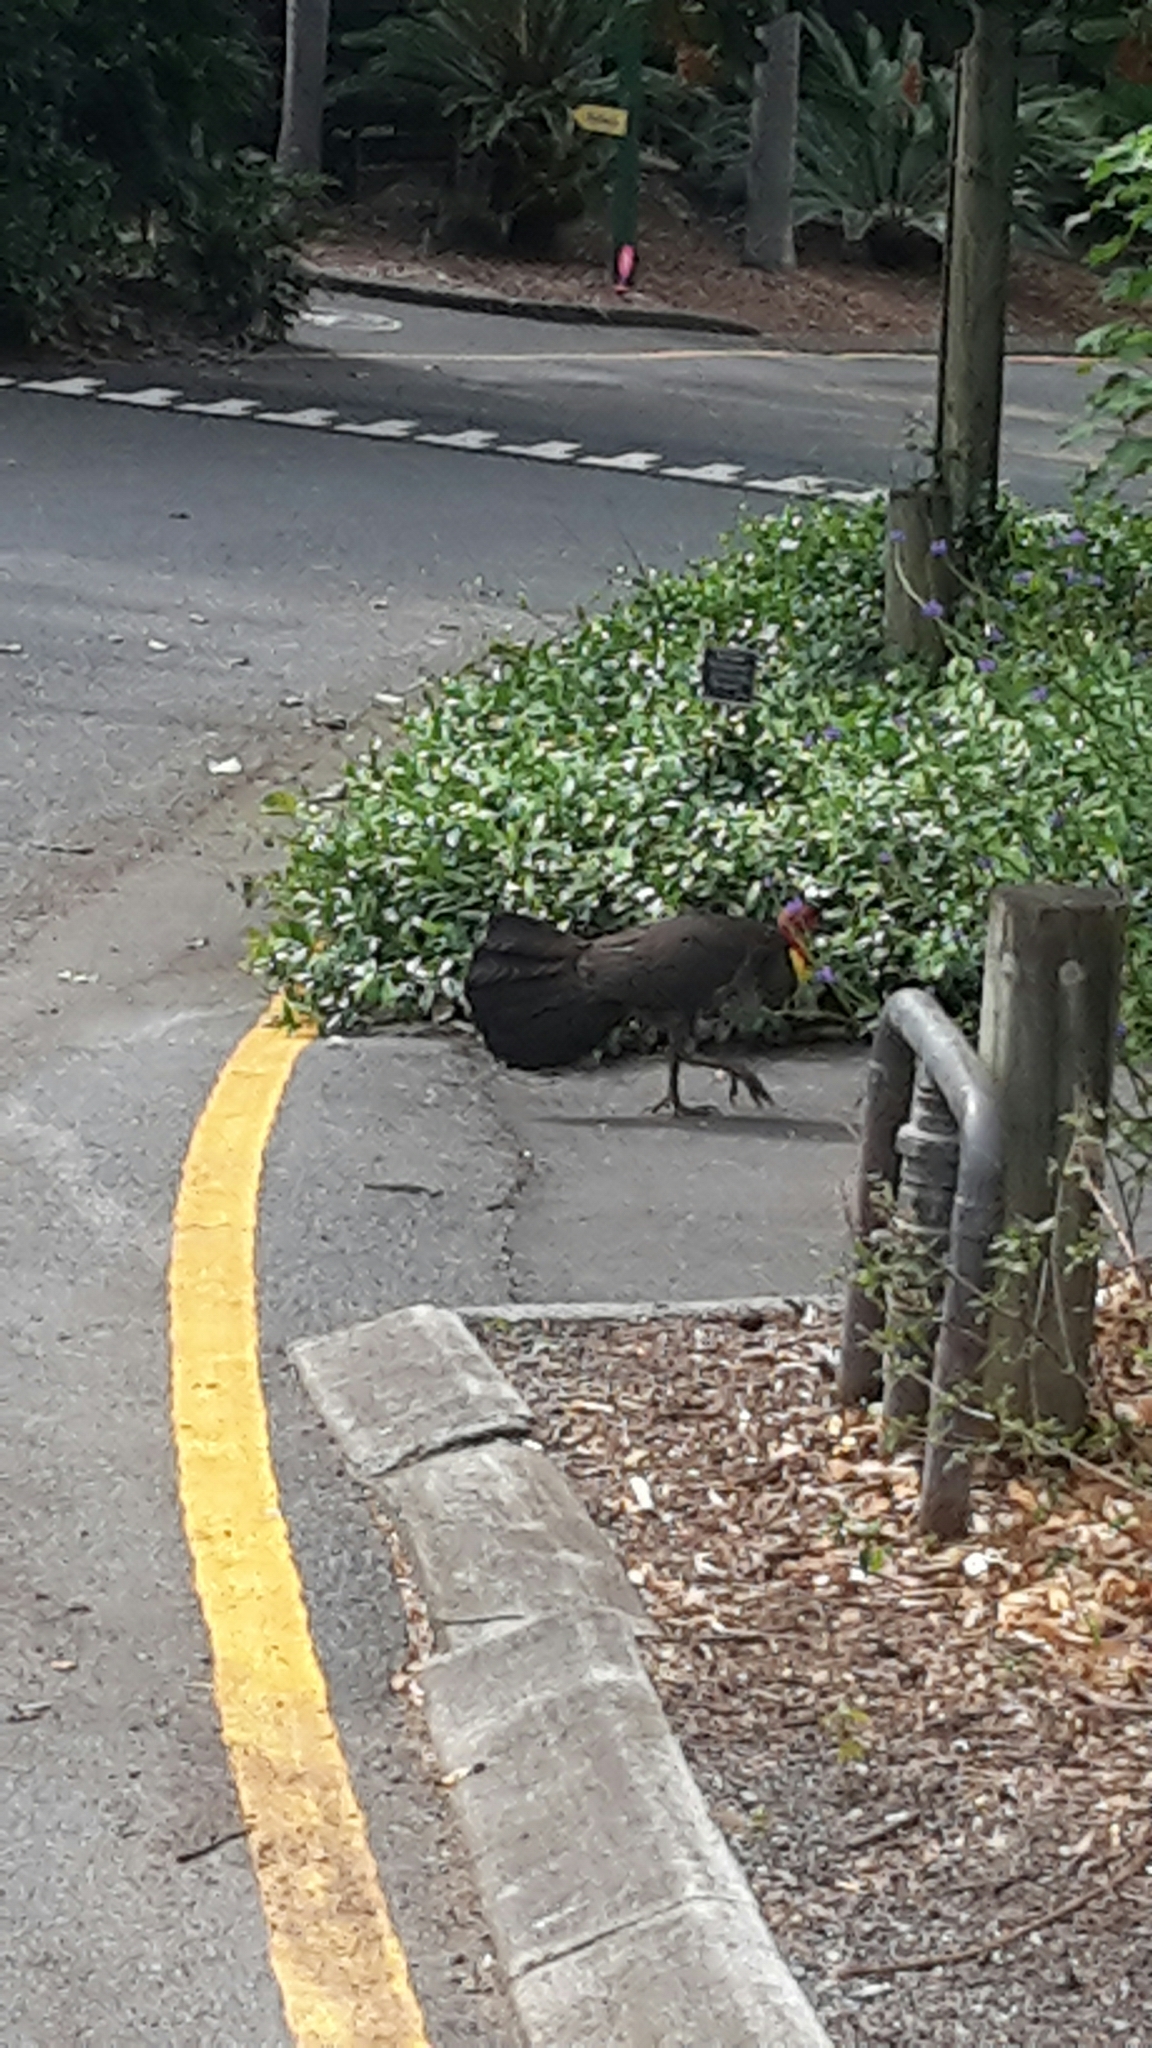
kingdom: Animalia
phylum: Chordata
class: Aves
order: Galliformes
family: Megapodiidae
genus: Alectura
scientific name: Alectura lathami
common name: Australian brushturkey
